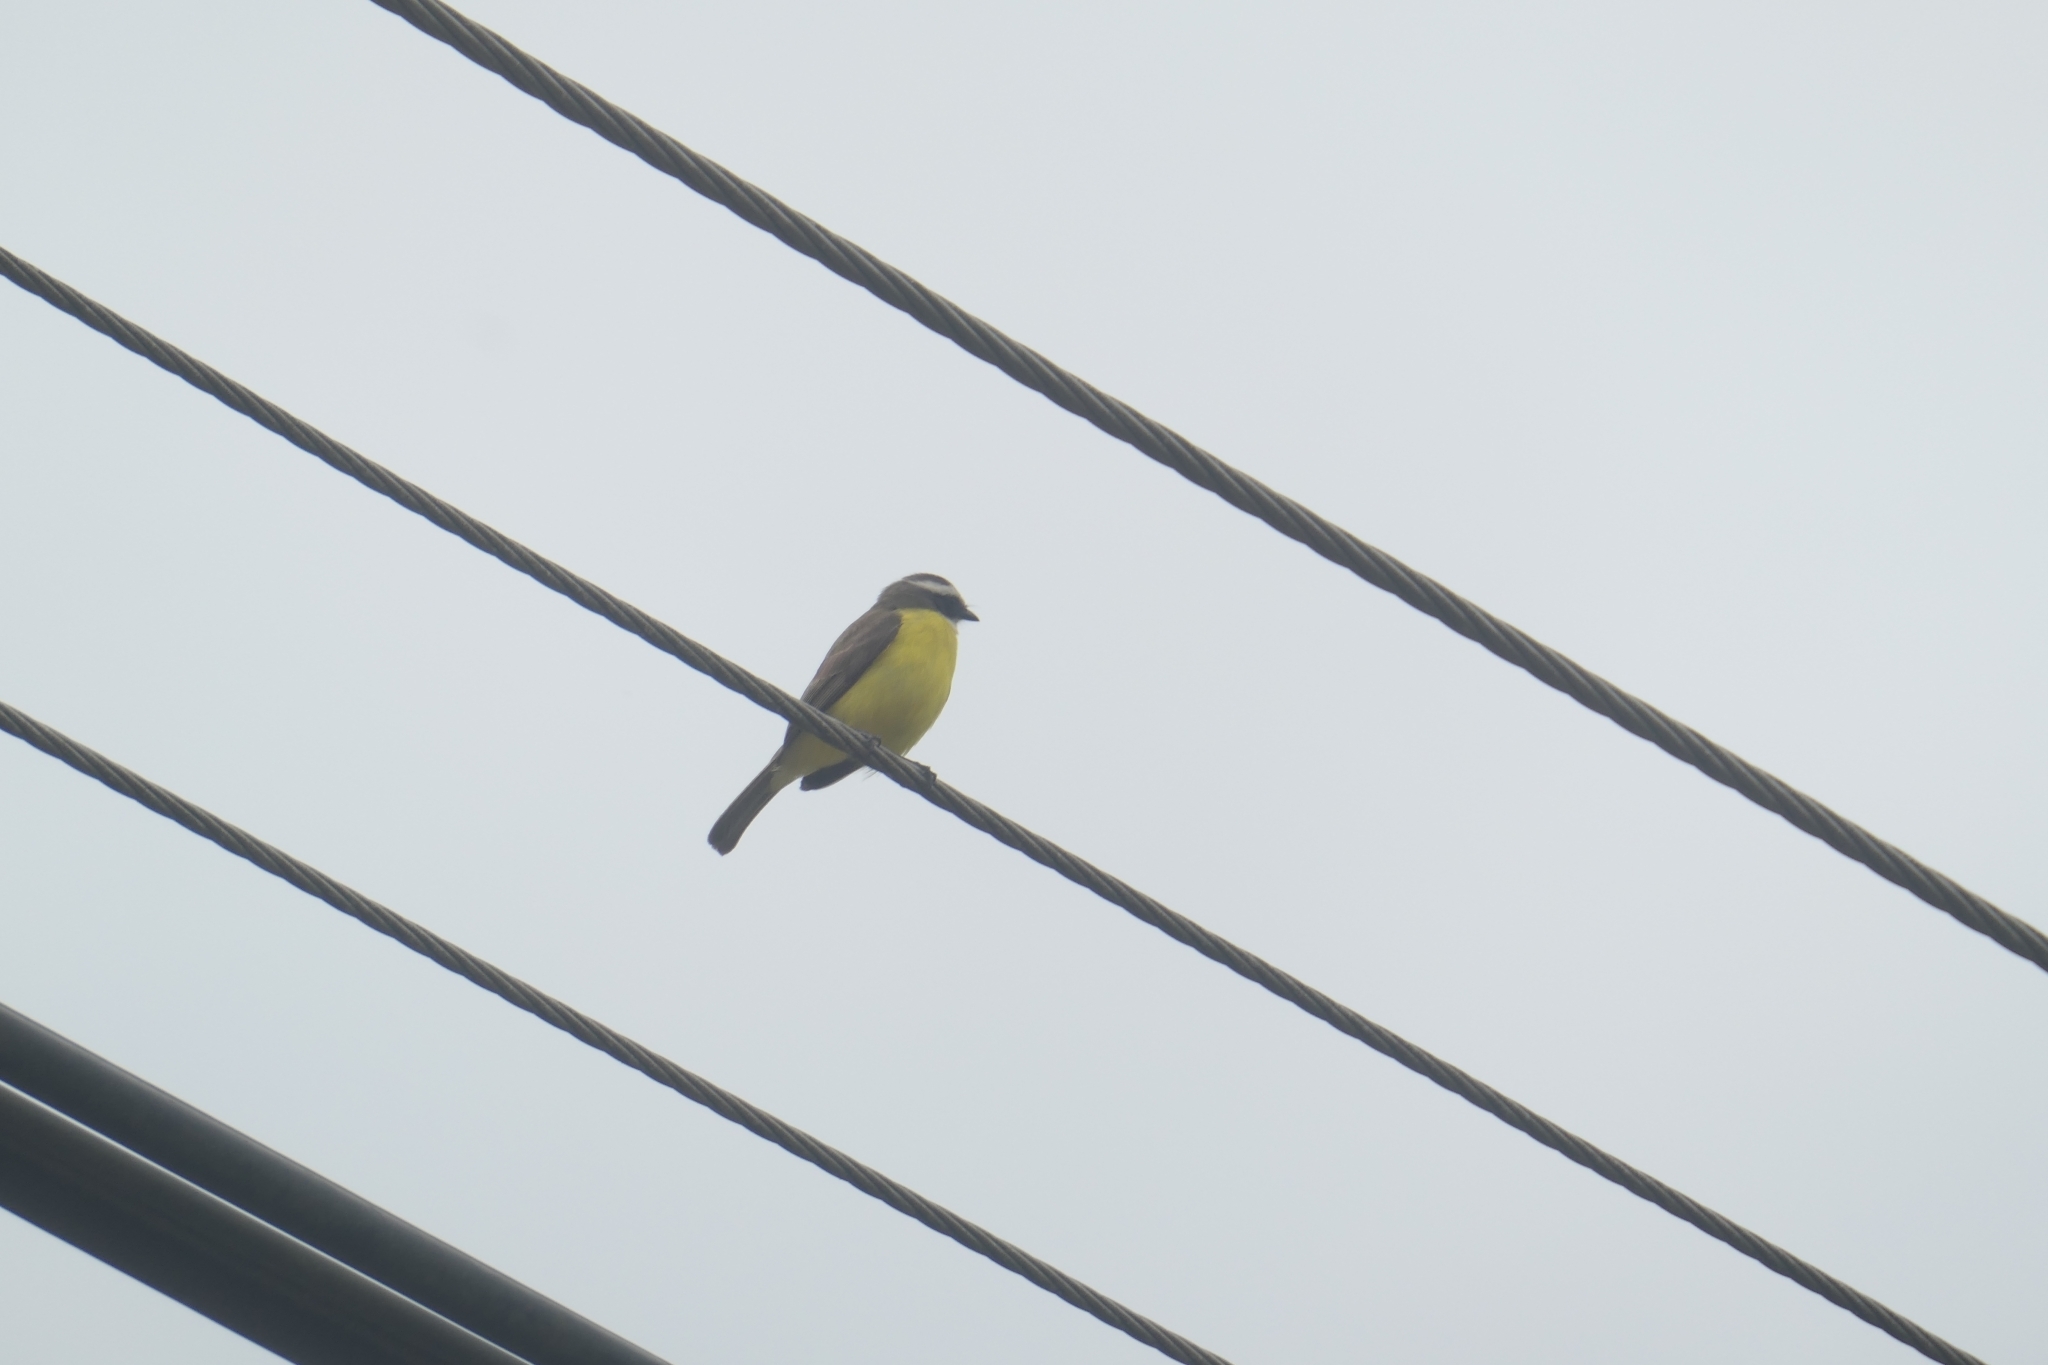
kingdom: Animalia
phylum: Chordata
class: Aves
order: Passeriformes
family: Tyrannidae
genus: Myiozetetes
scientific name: Myiozetetes similis
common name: Social flycatcher
